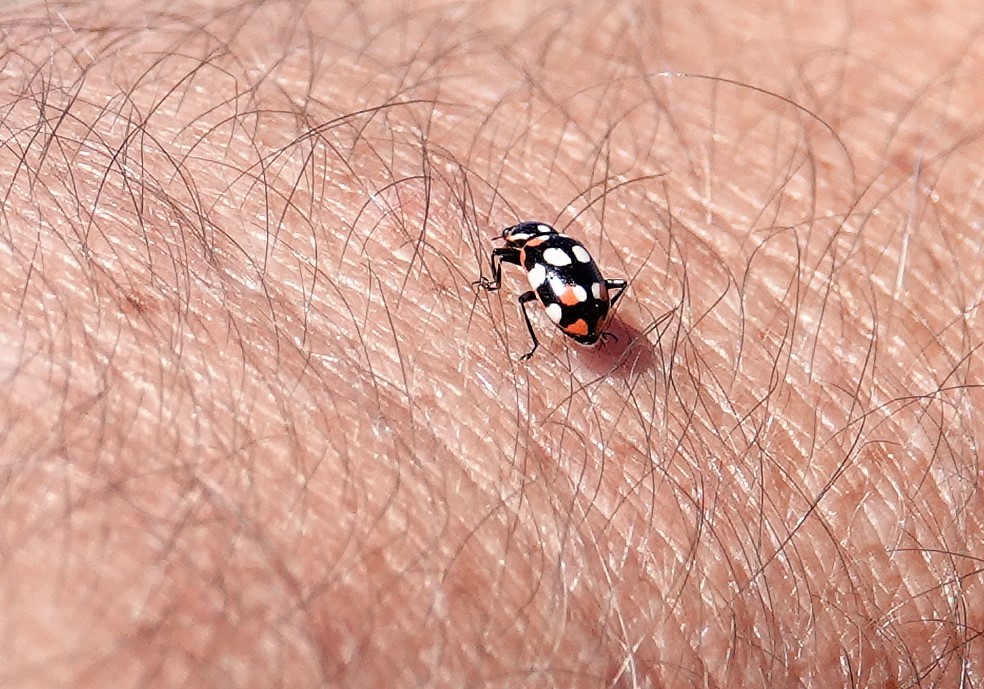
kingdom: Animalia
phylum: Arthropoda
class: Insecta
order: Coleoptera
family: Coccinellidae
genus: Eriopis
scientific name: Eriopis connexa
